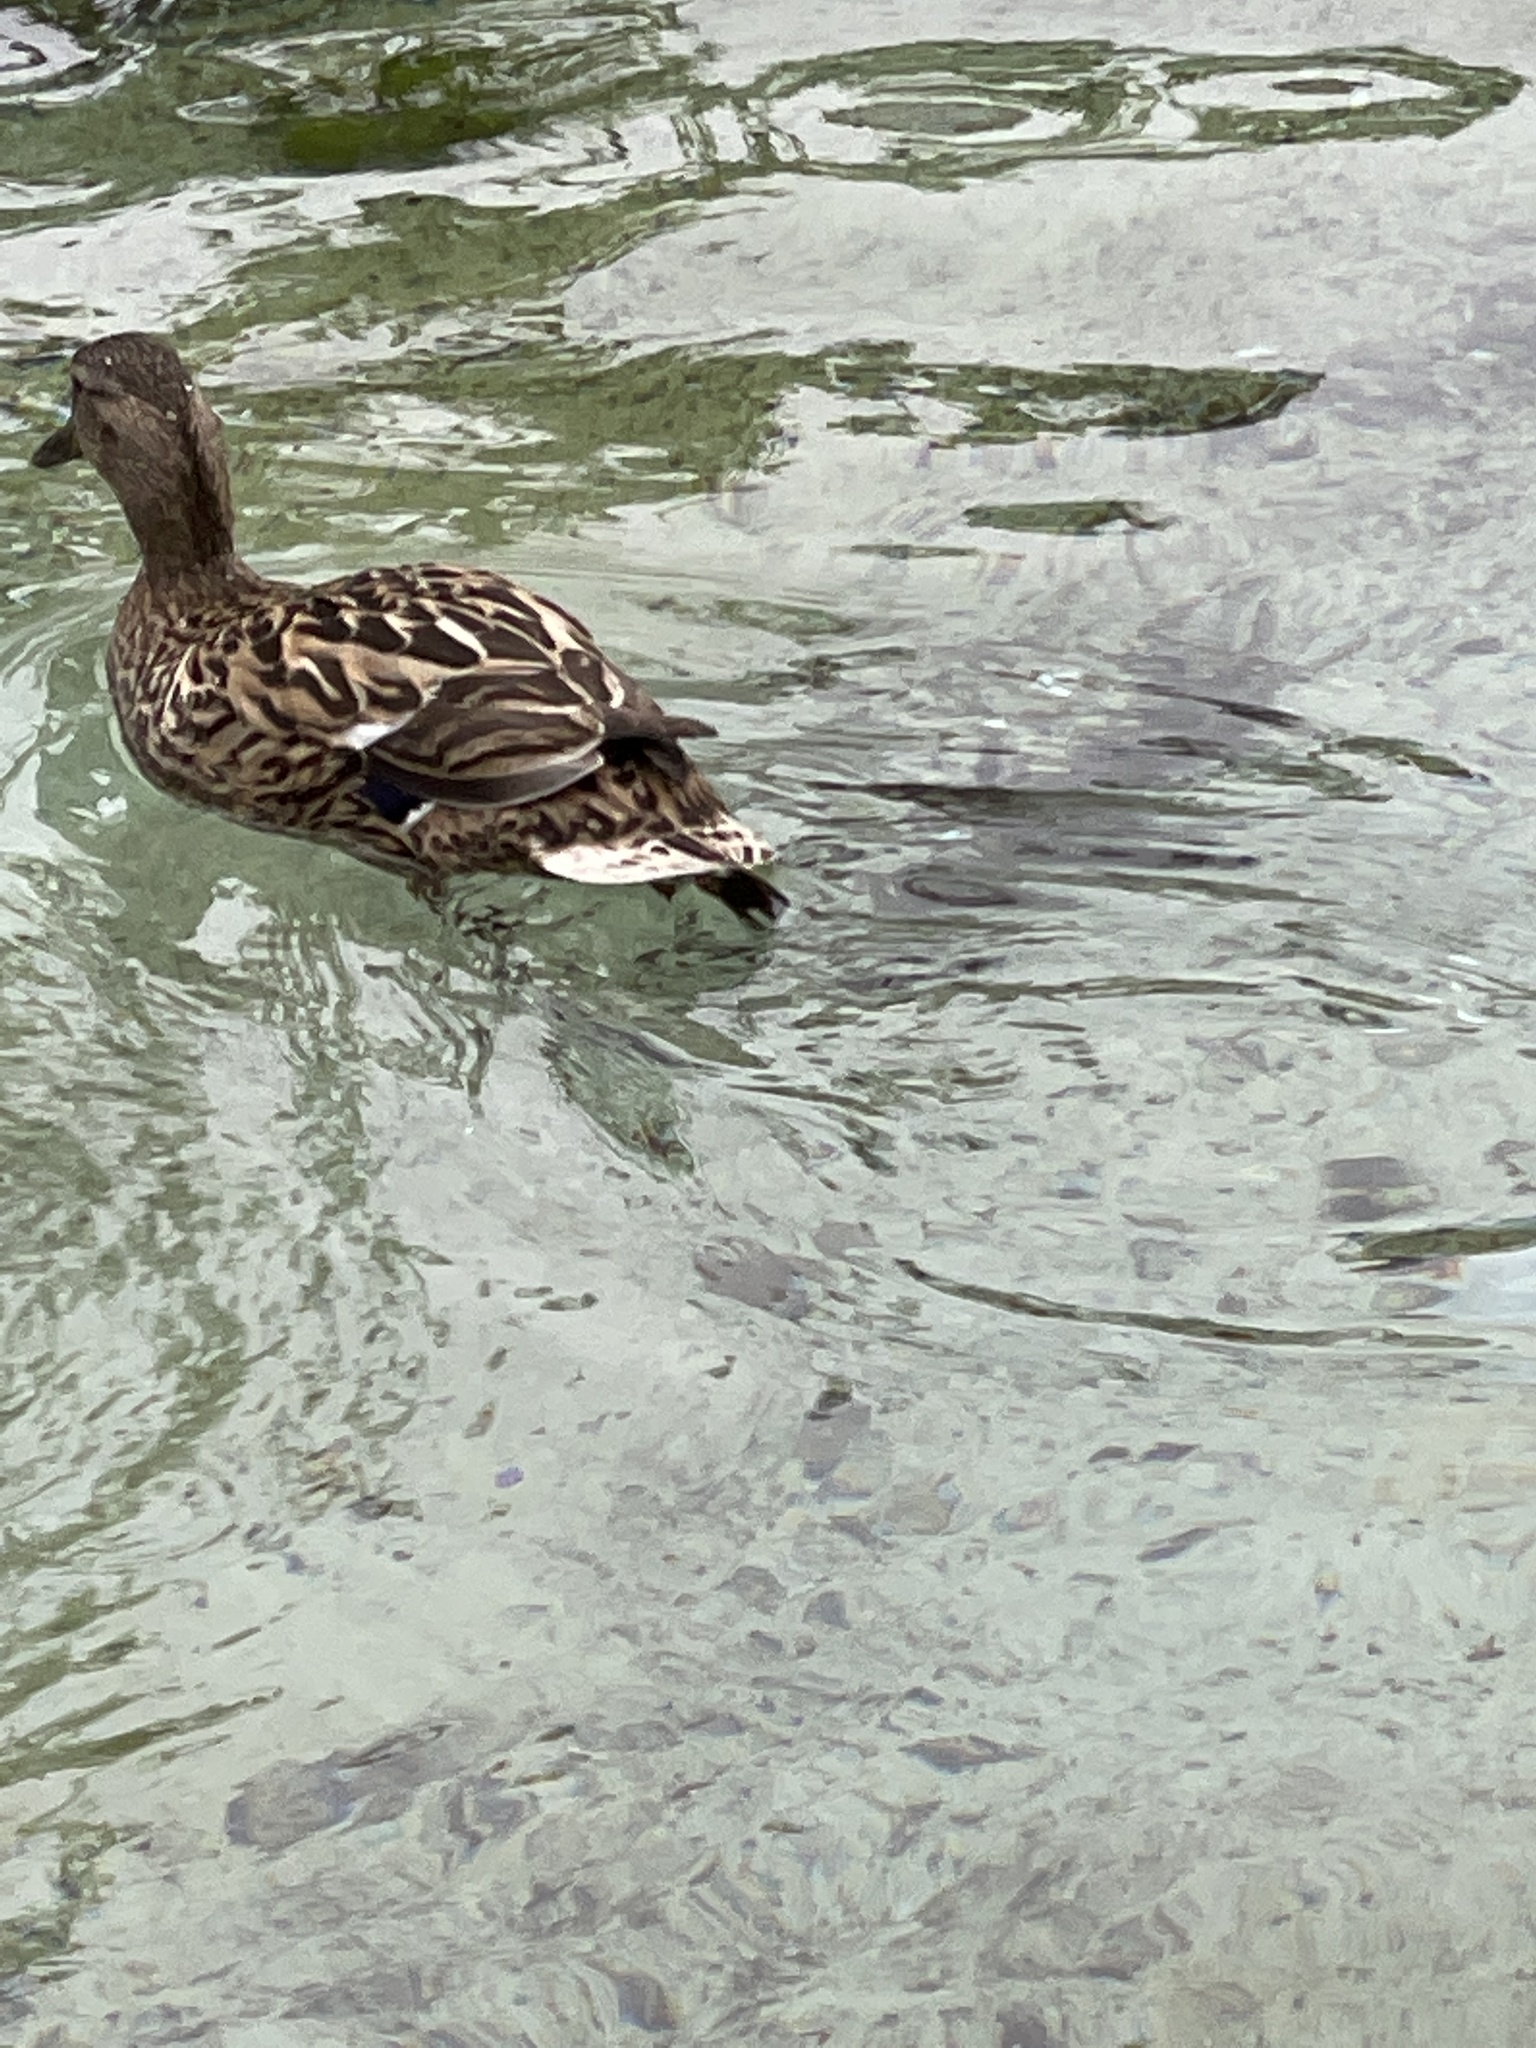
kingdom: Animalia
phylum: Chordata
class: Aves
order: Anseriformes
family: Anatidae
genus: Anas
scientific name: Anas platyrhynchos
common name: Mallard
